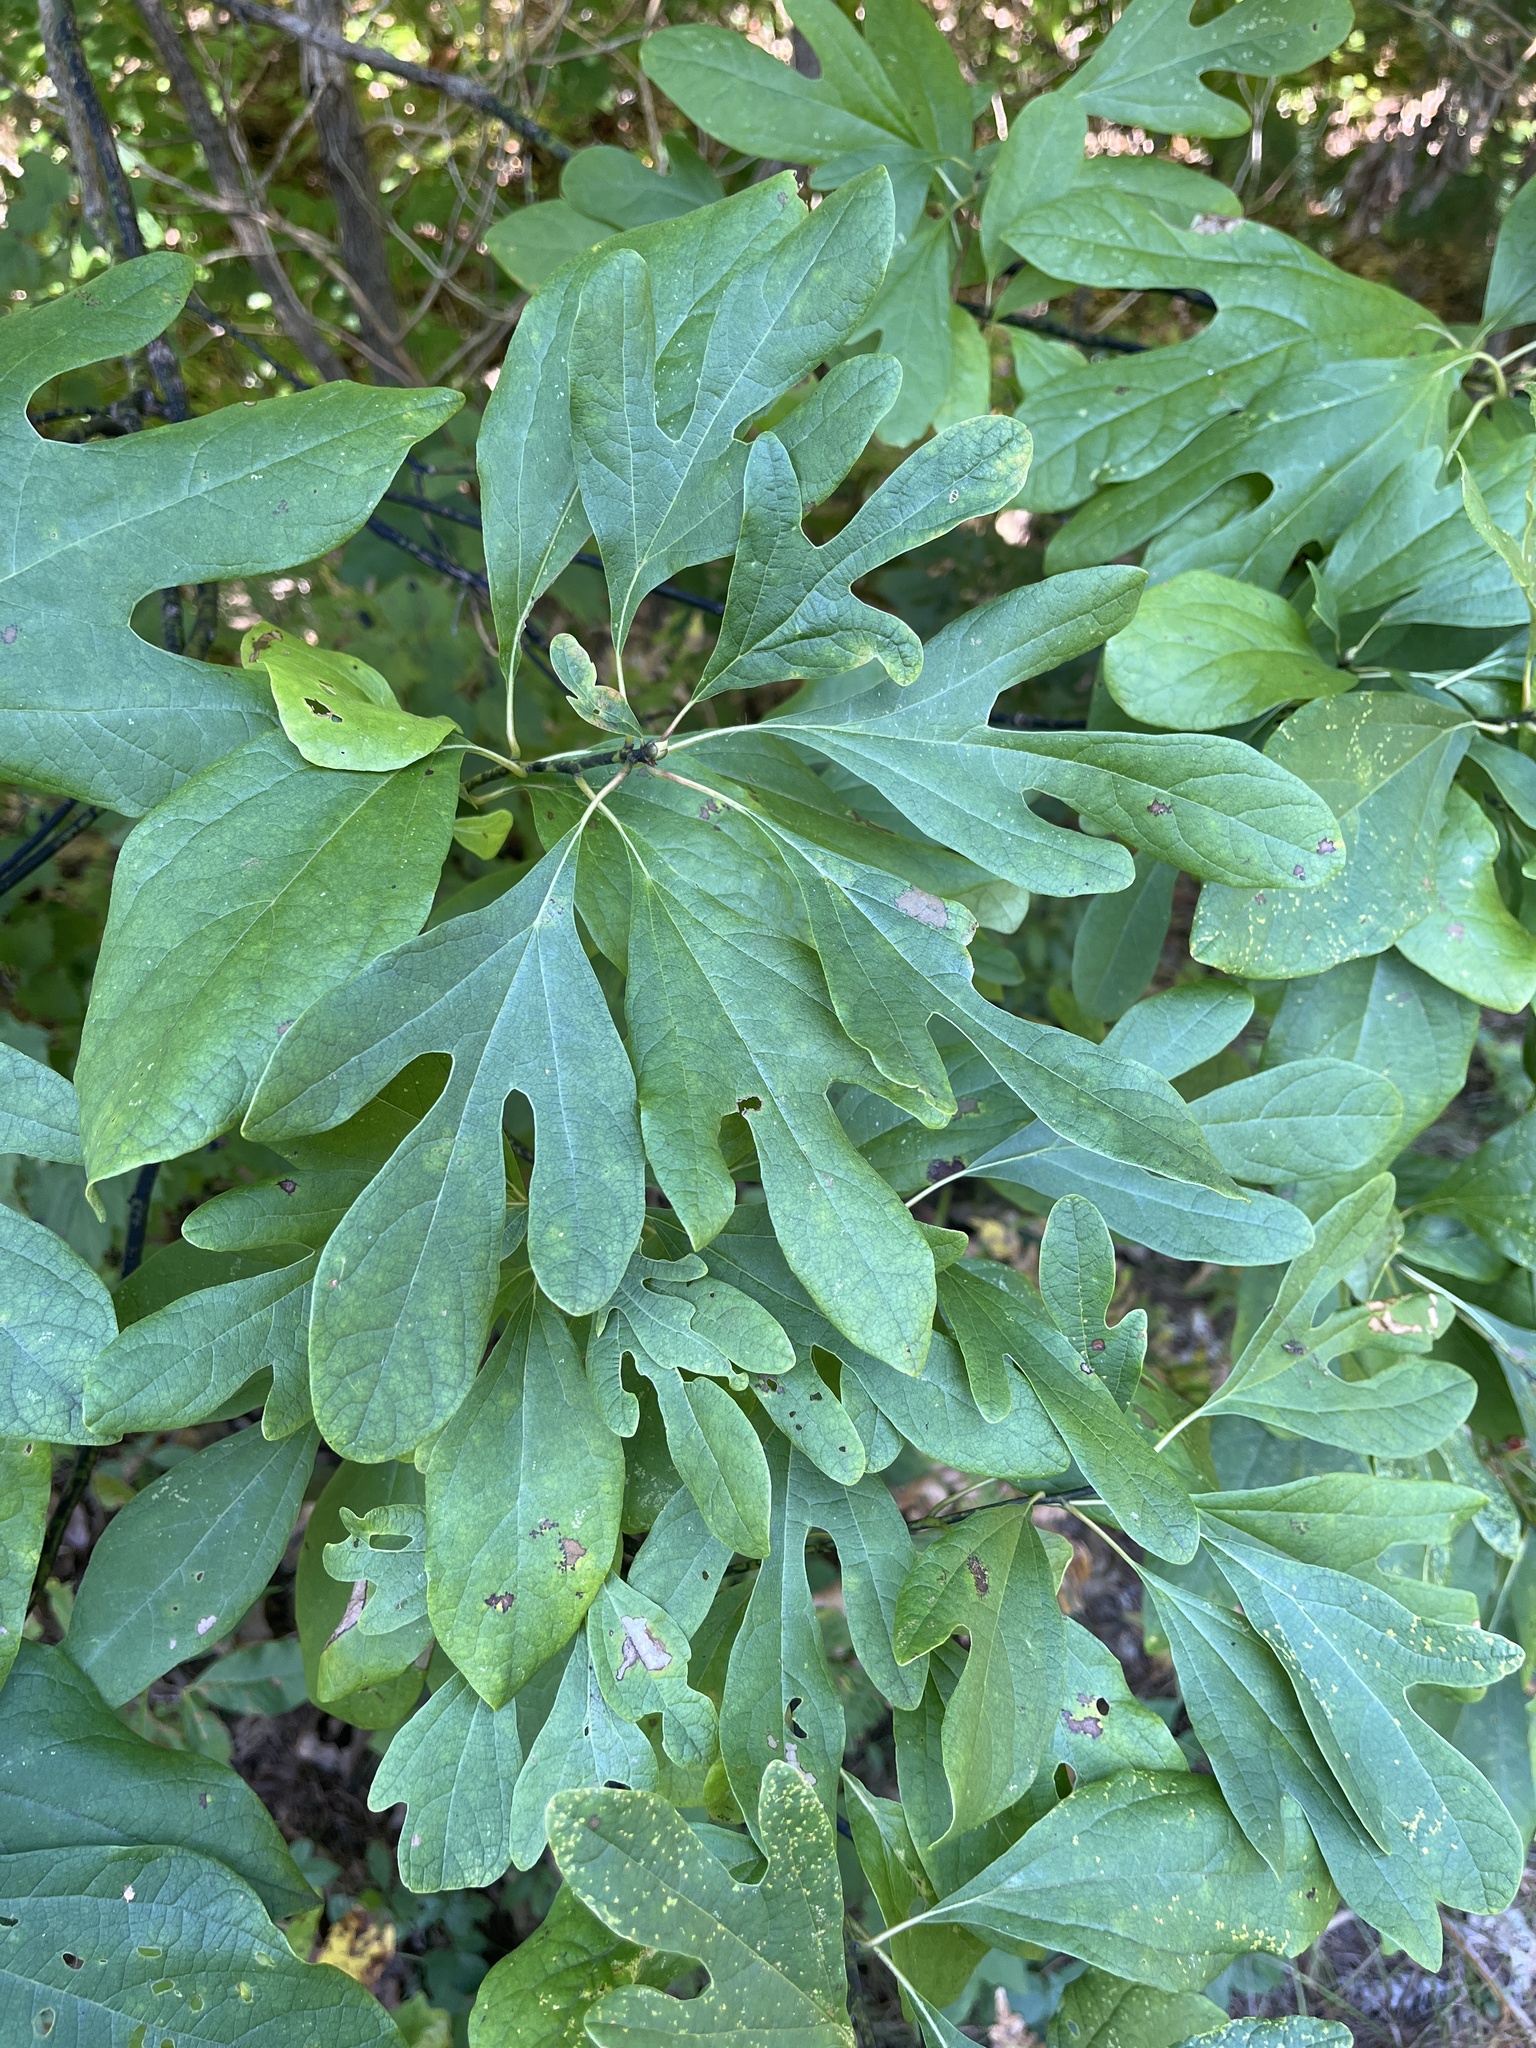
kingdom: Plantae
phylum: Tracheophyta
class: Magnoliopsida
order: Laurales
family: Lauraceae
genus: Sassafras
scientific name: Sassafras albidum
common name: Sassafras
